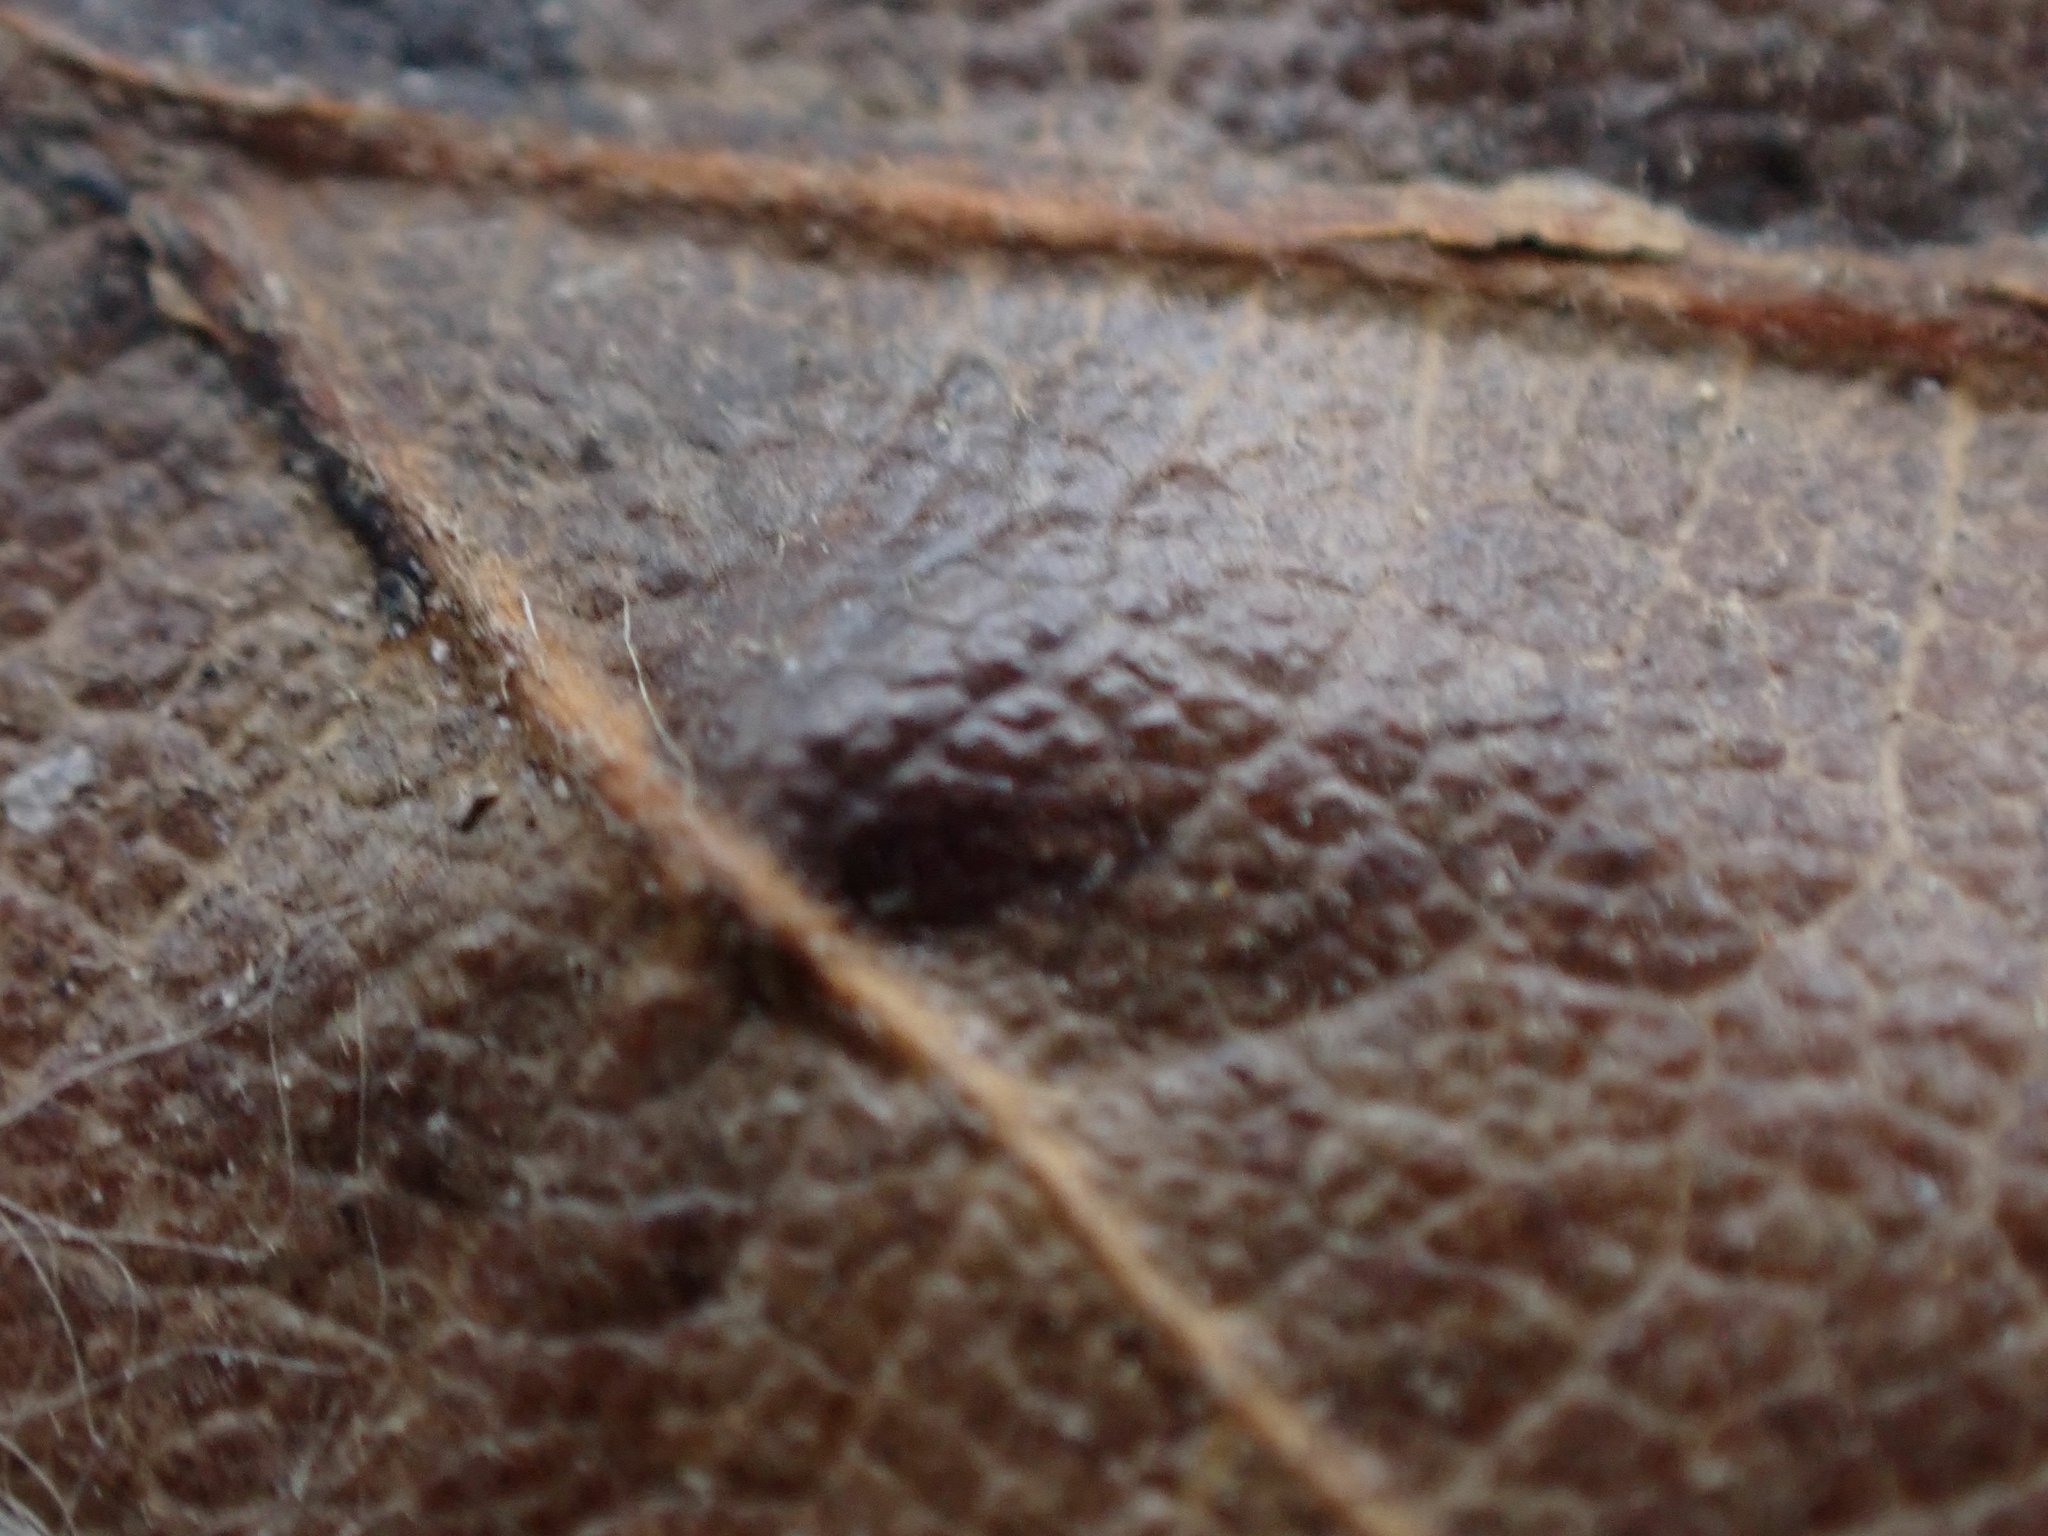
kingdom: Animalia
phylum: Arthropoda
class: Insecta
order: Hymenoptera
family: Cynipidae
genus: Philonix
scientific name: Philonix fulvicollis
